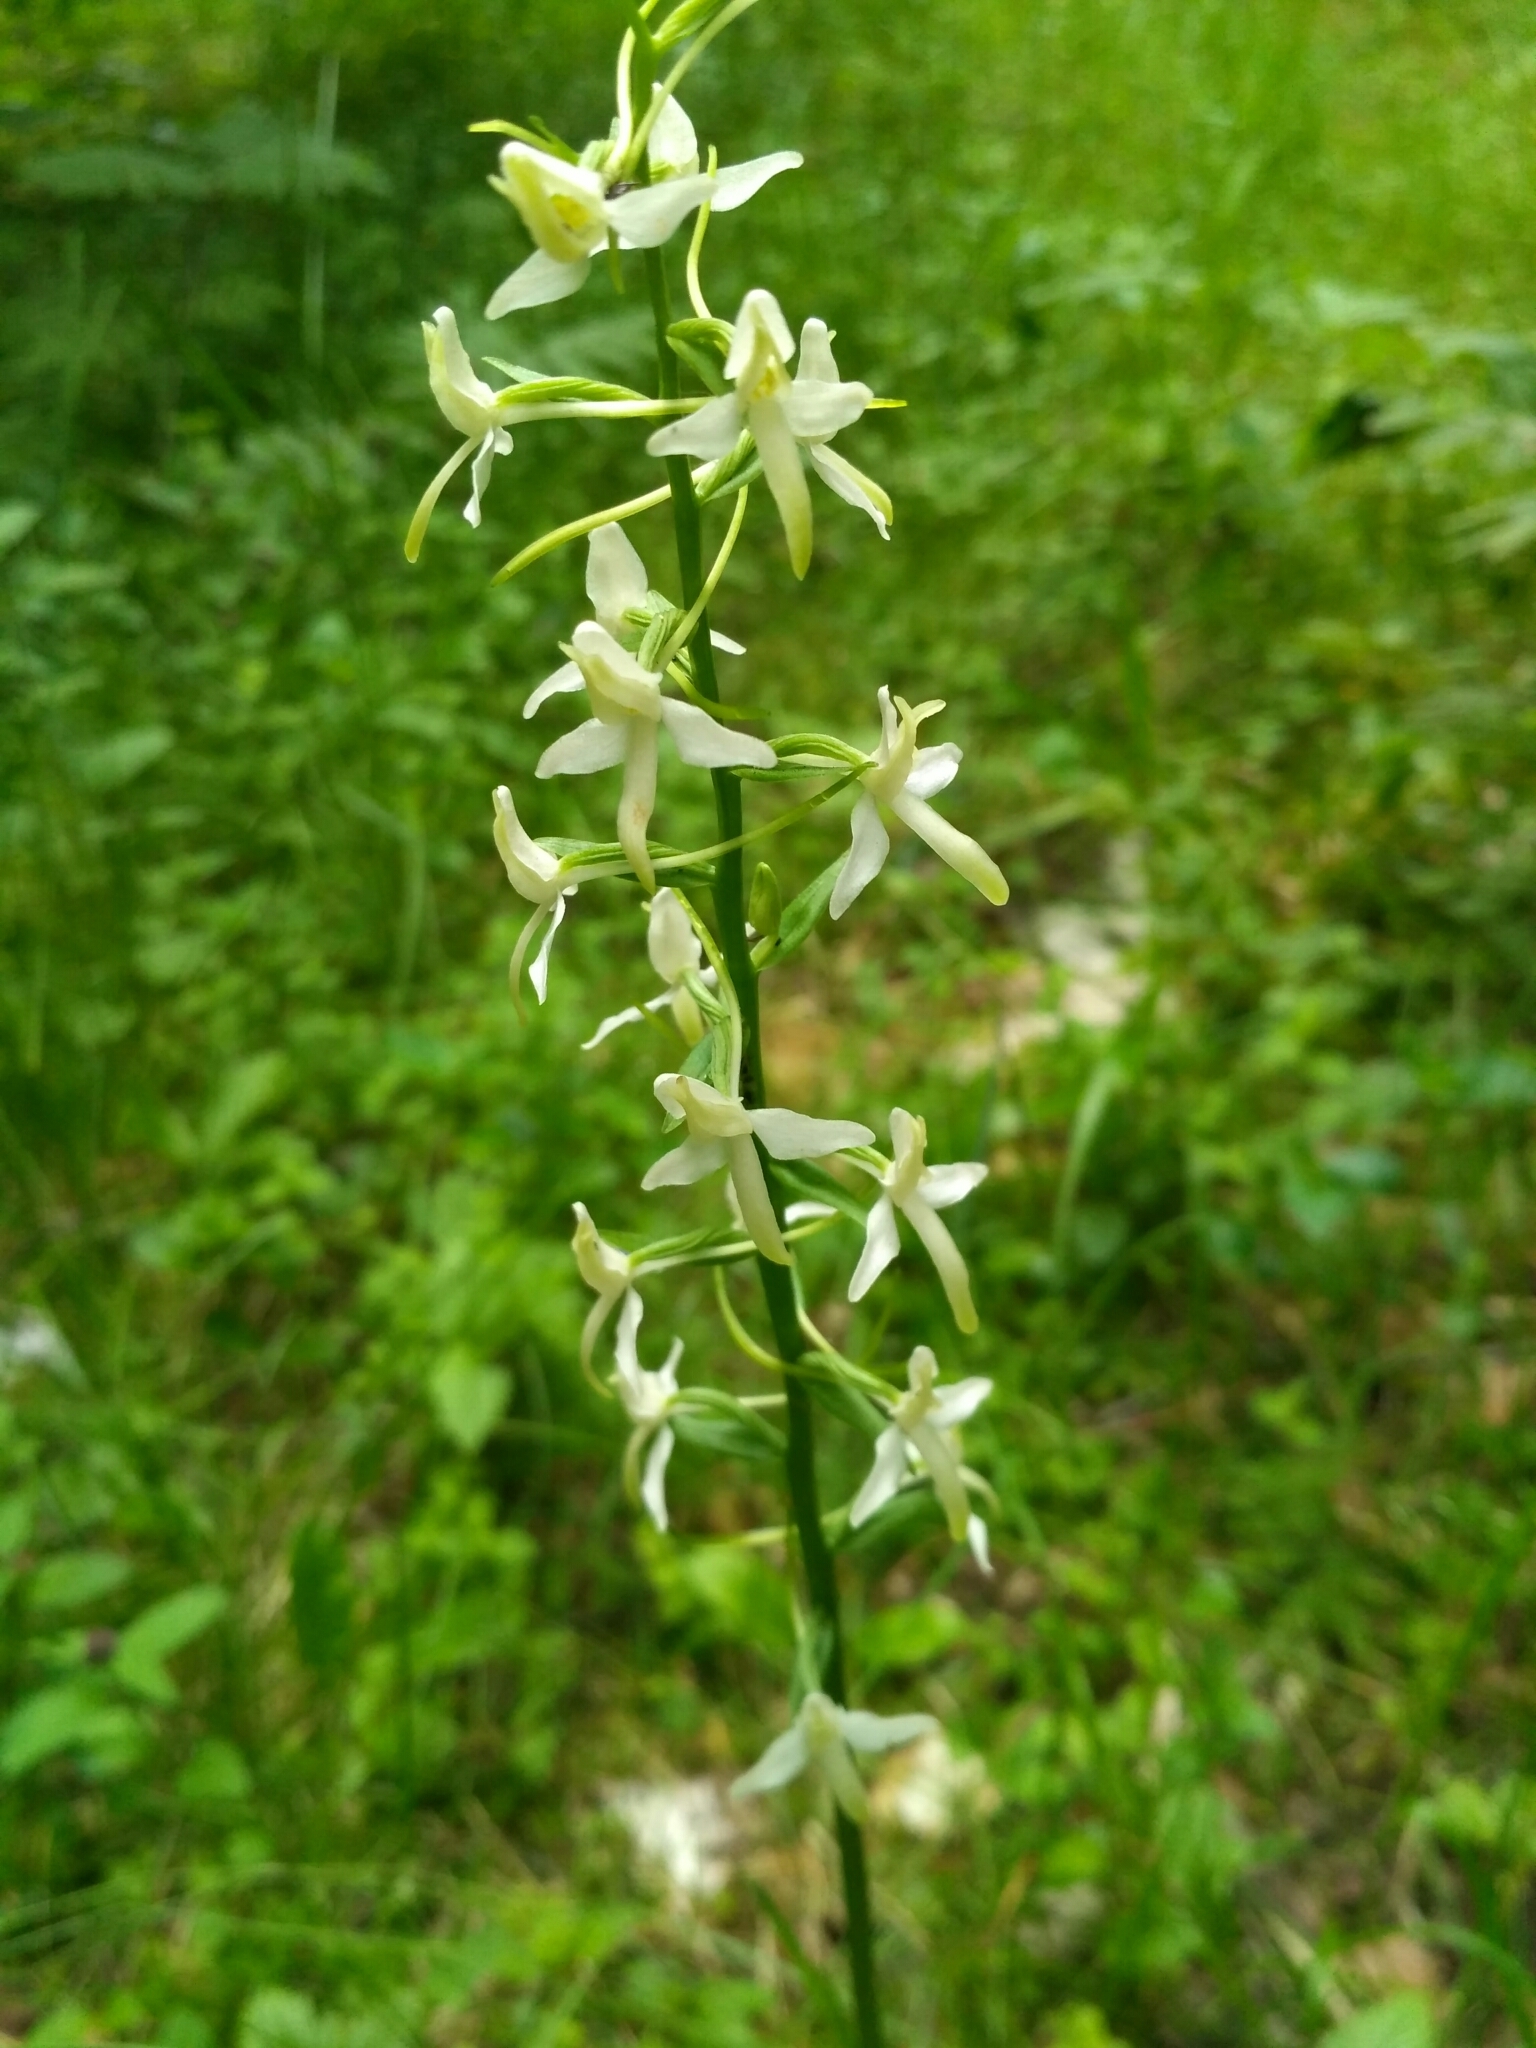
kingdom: Plantae
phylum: Tracheophyta
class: Liliopsida
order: Asparagales
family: Orchidaceae
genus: Platanthera
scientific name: Platanthera bifolia
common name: Lesser butterfly-orchid
